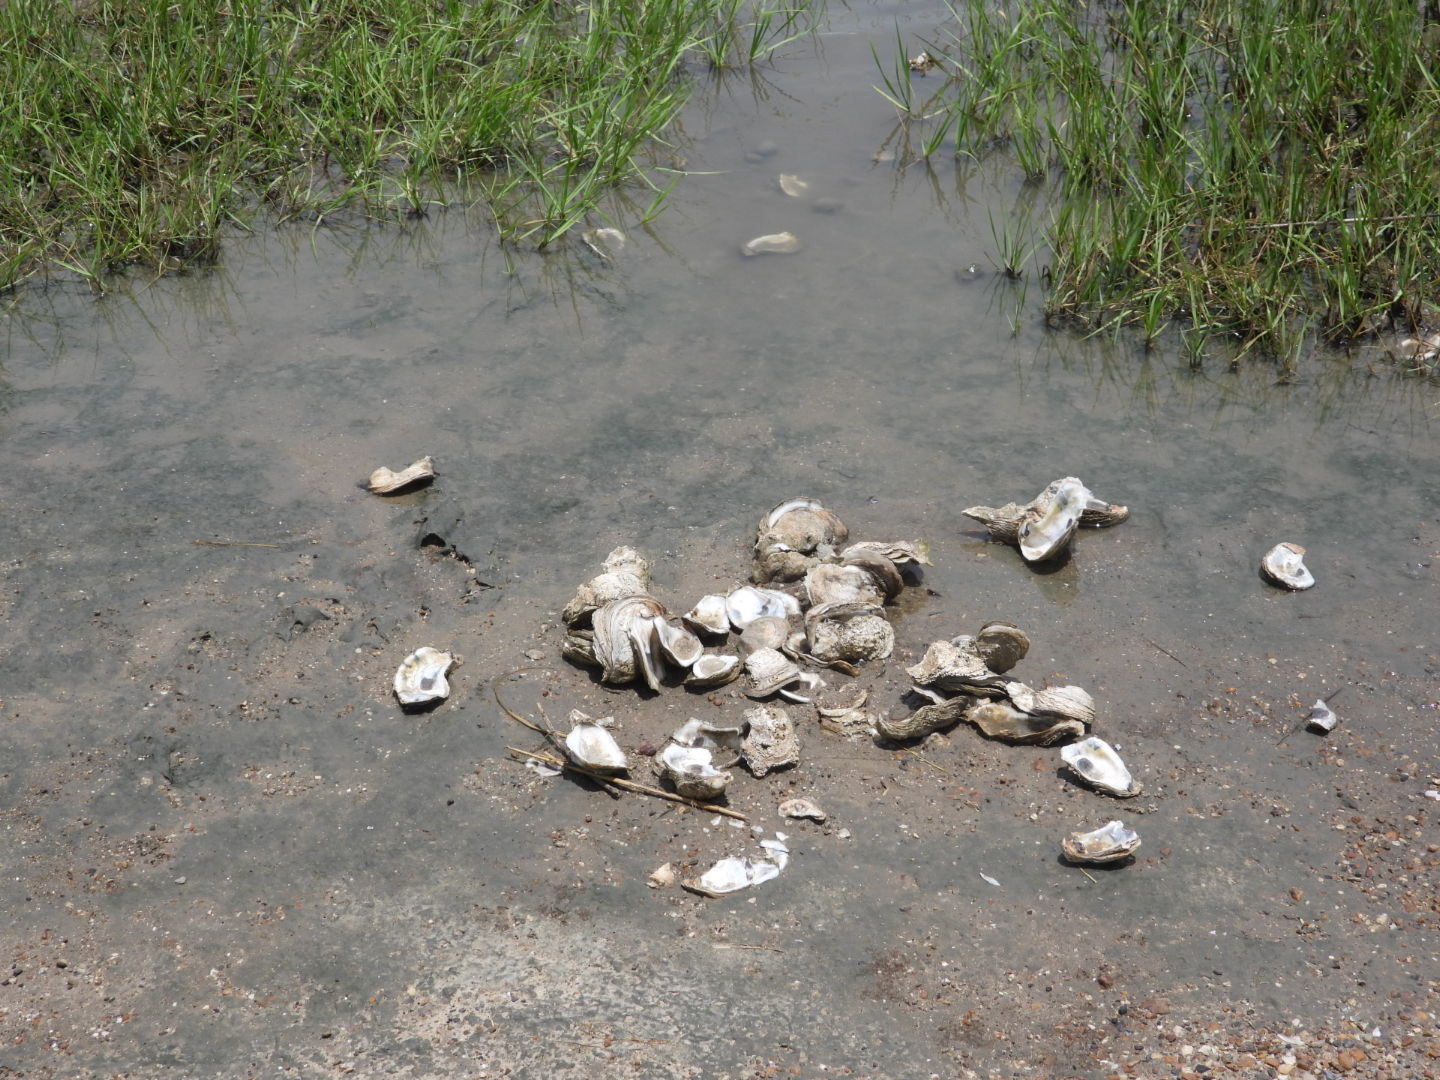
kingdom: Animalia
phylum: Mollusca
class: Bivalvia
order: Ostreida
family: Ostreidae
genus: Crassostrea
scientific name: Crassostrea virginica
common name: American oyster
